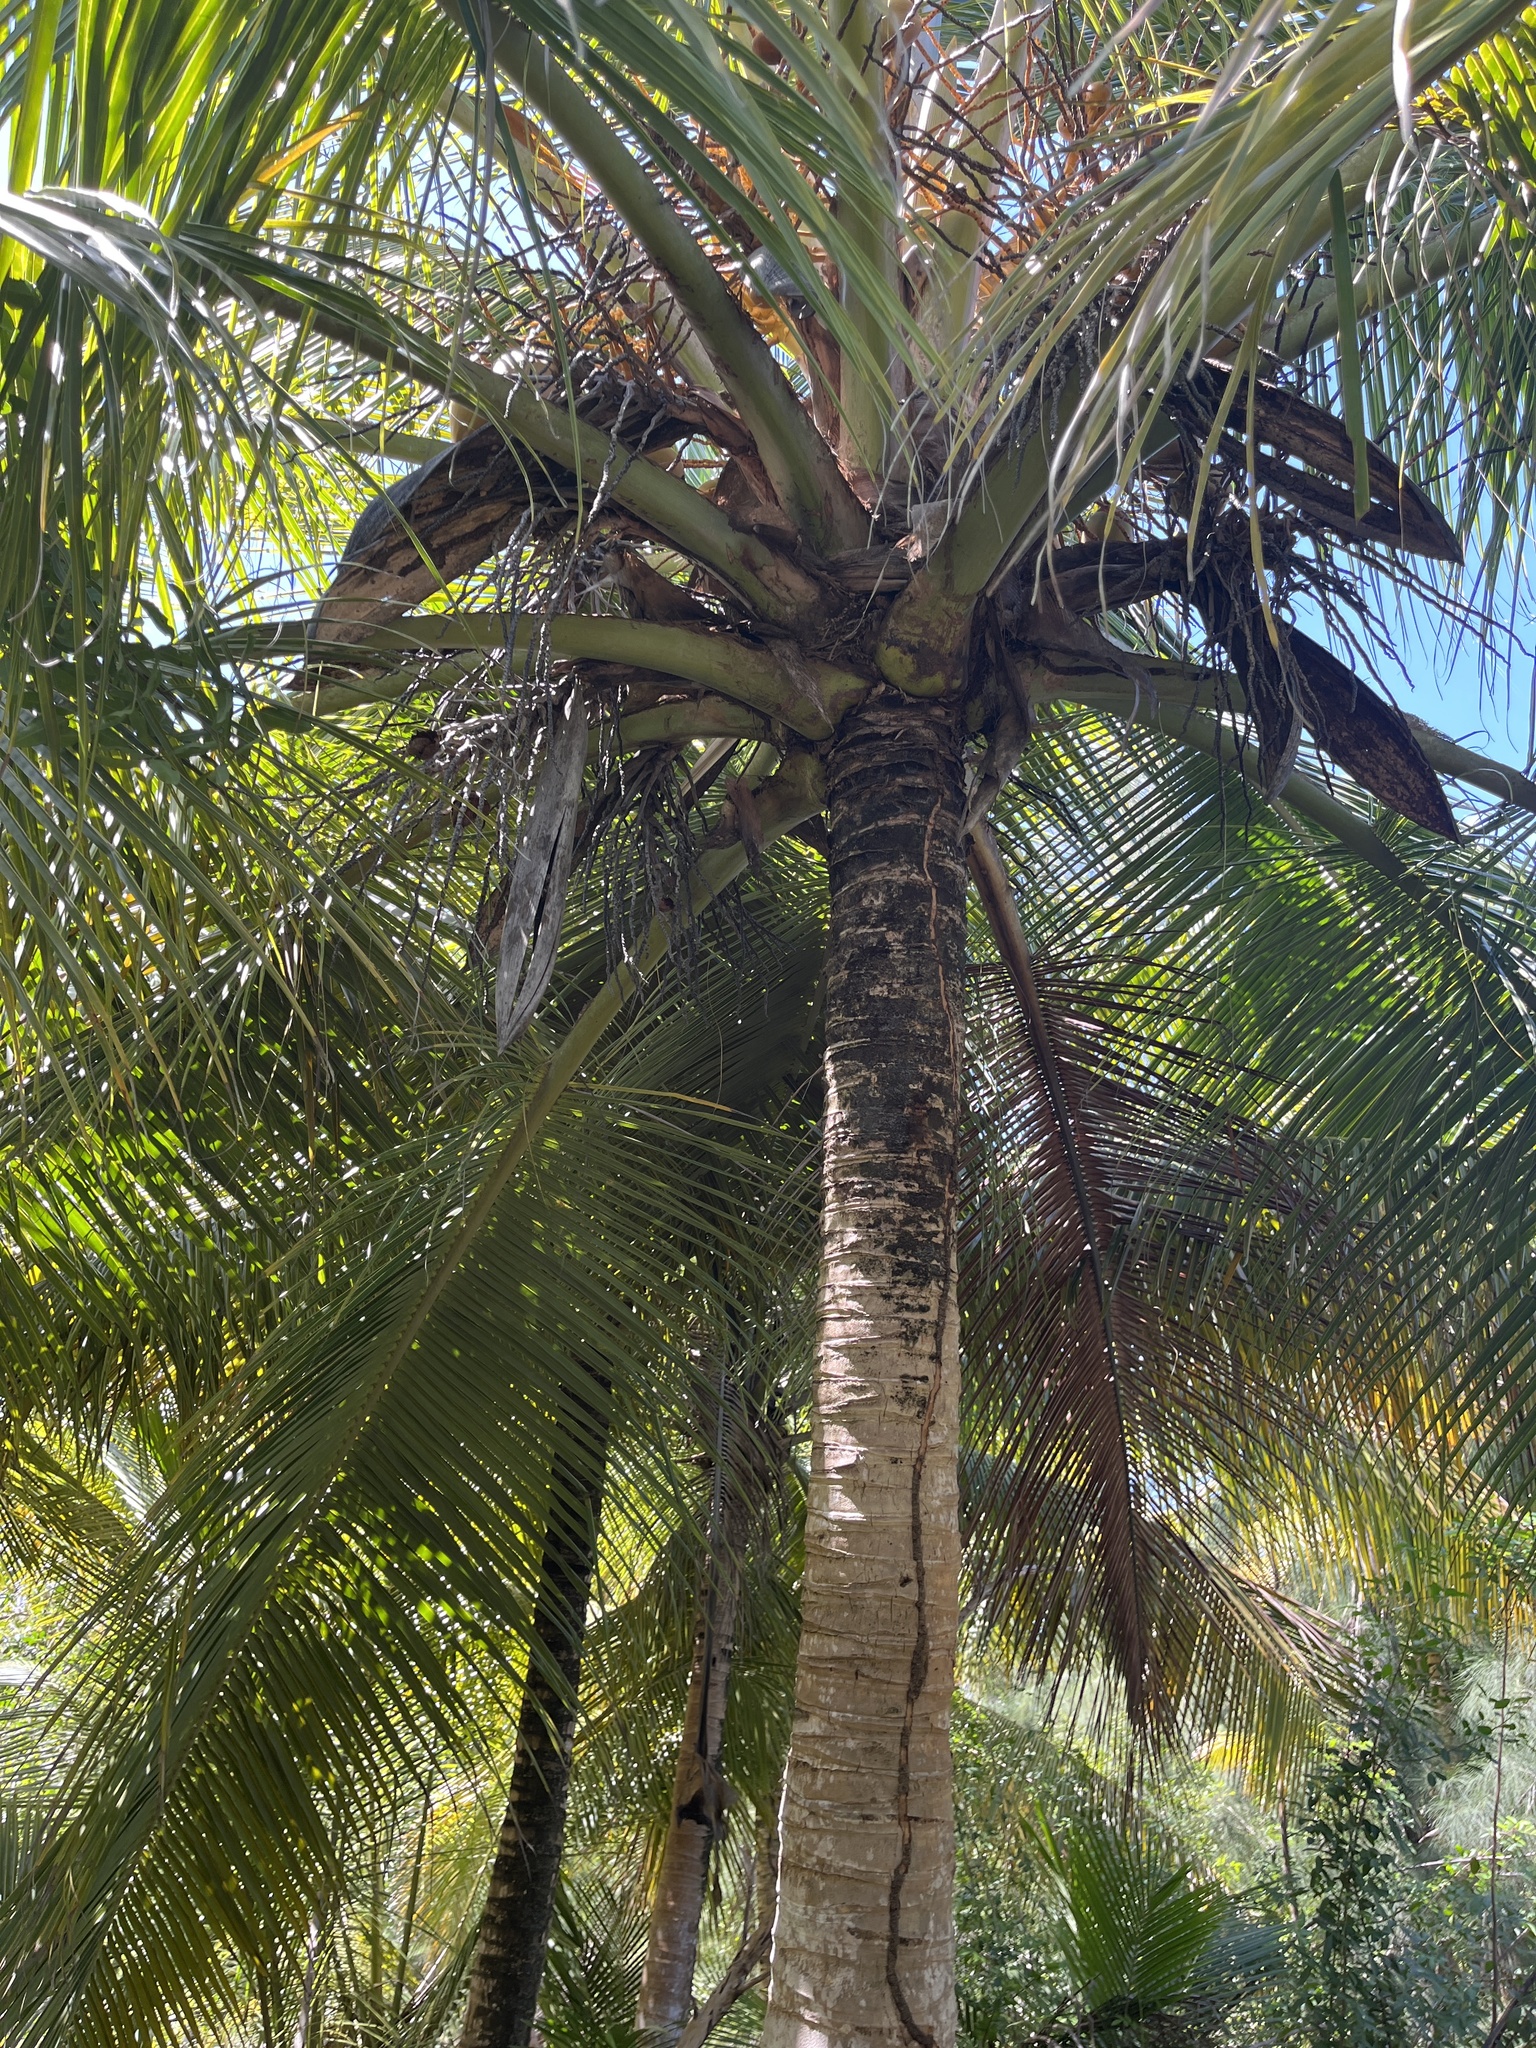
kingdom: Plantae
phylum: Tracheophyta
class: Liliopsida
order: Arecales
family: Arecaceae
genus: Cocos
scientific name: Cocos nucifera
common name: Coconut palm
